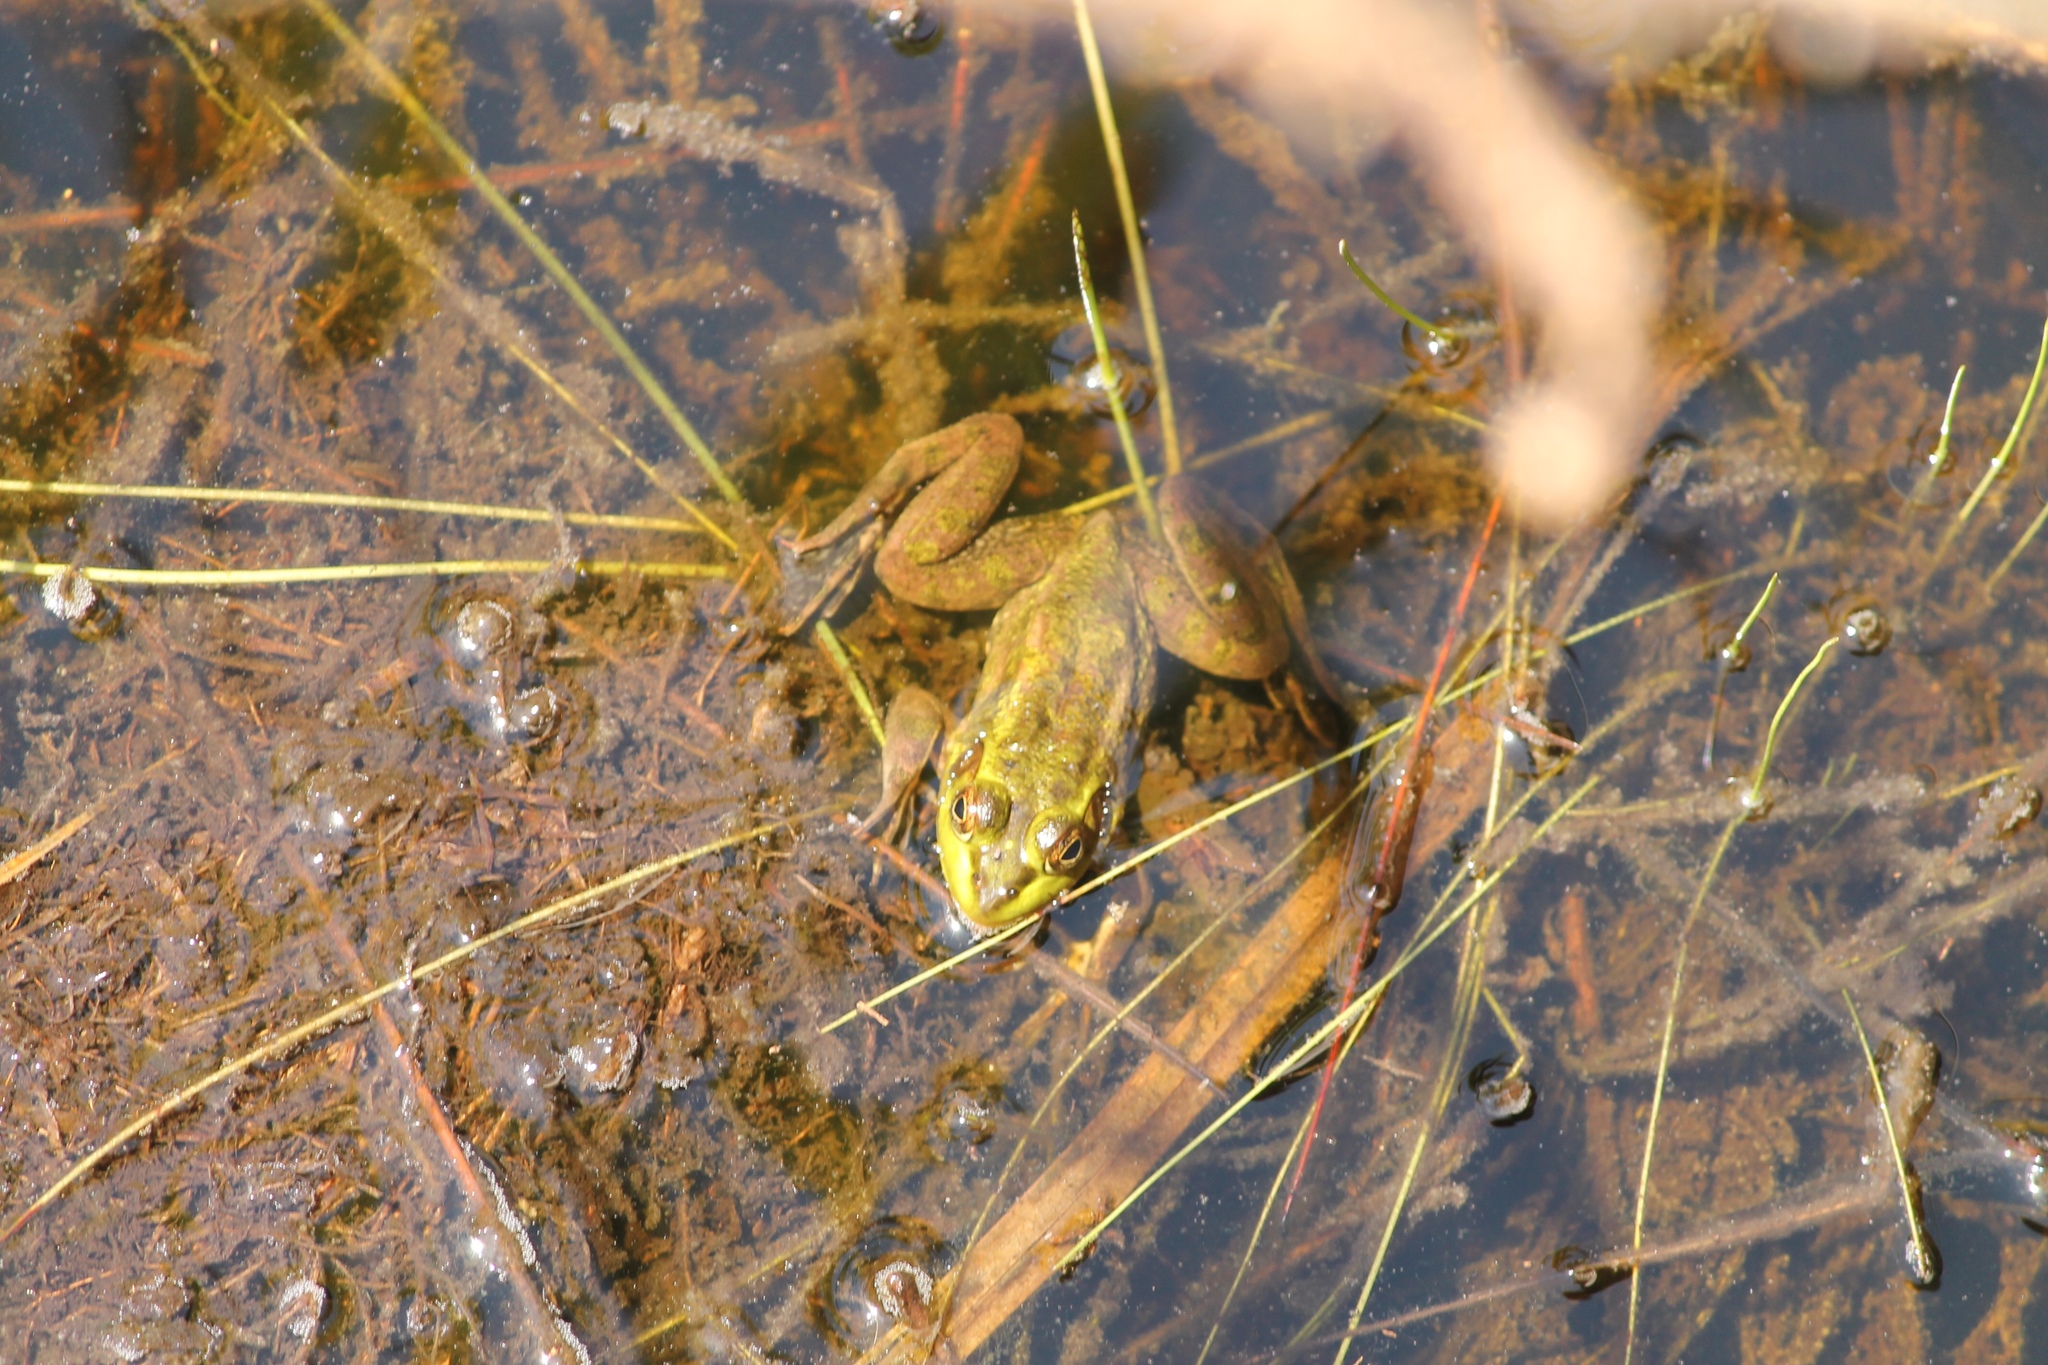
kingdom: Animalia
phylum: Chordata
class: Amphibia
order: Anura
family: Ranidae
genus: Lithobates
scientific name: Lithobates grylio
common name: Pig frog
